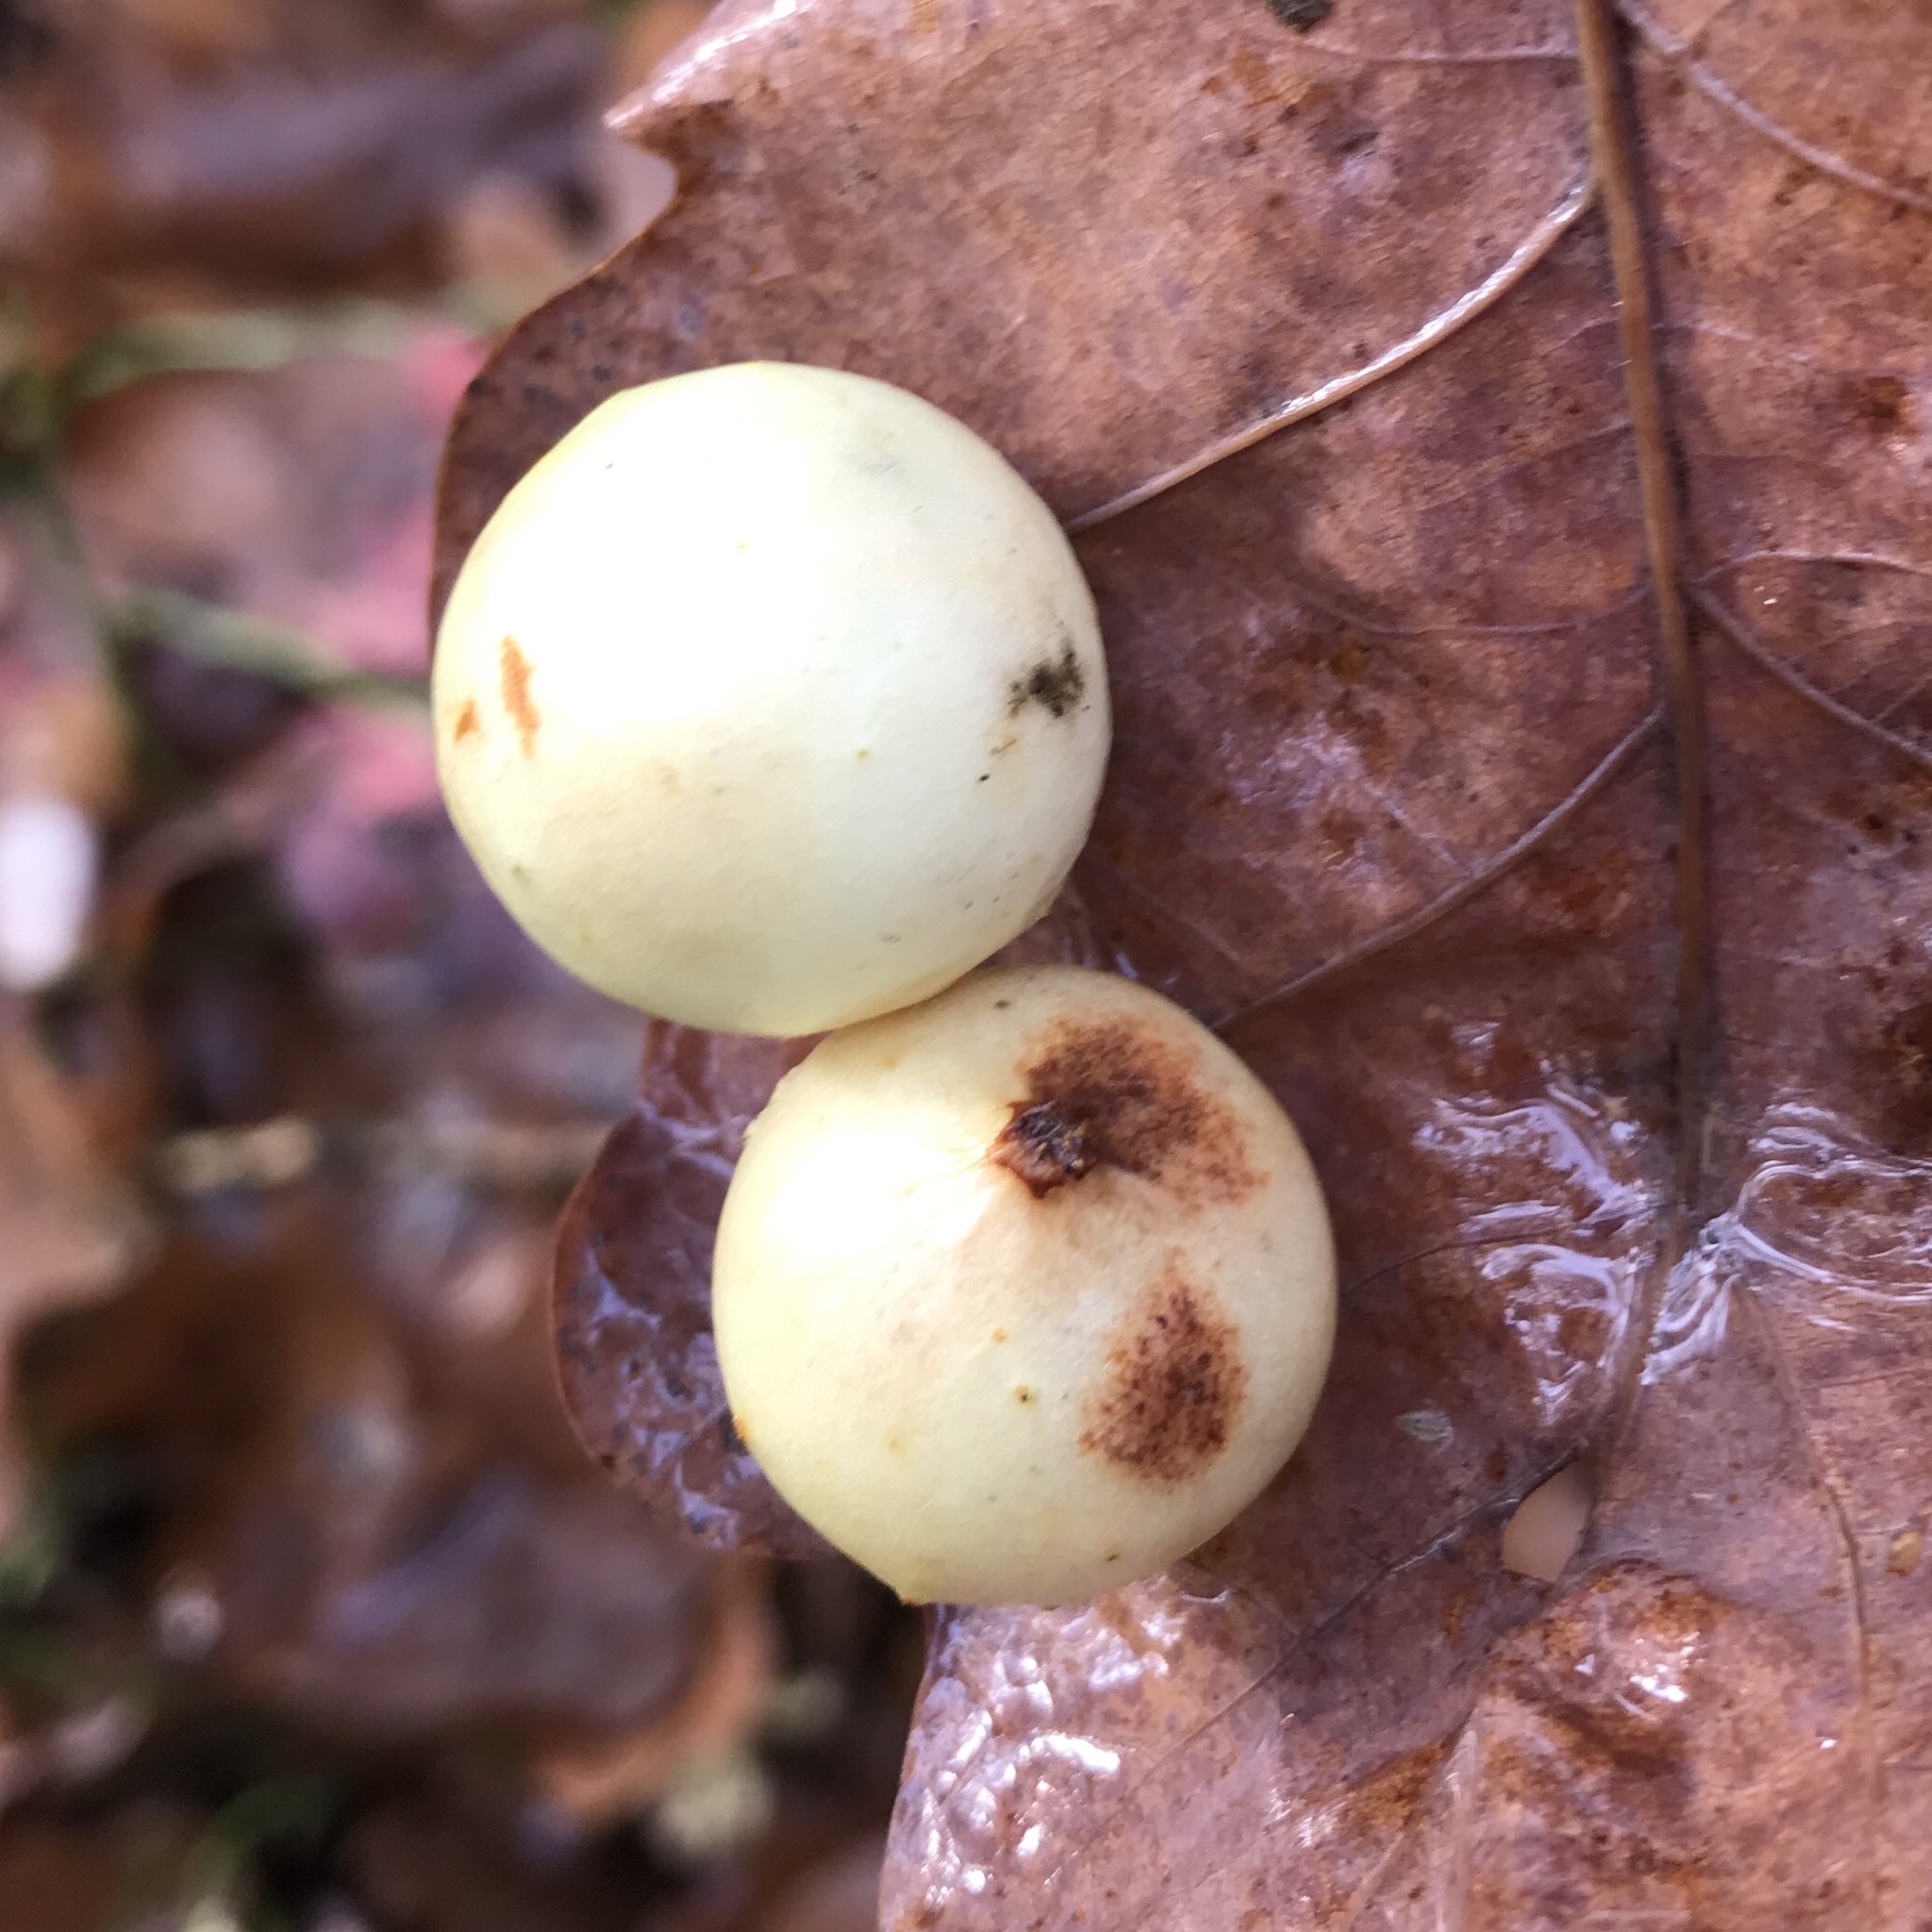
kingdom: Animalia
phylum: Arthropoda
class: Insecta
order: Hymenoptera
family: Cynipidae
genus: Cynips
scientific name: Cynips quercusfolii
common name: Cherry gall
